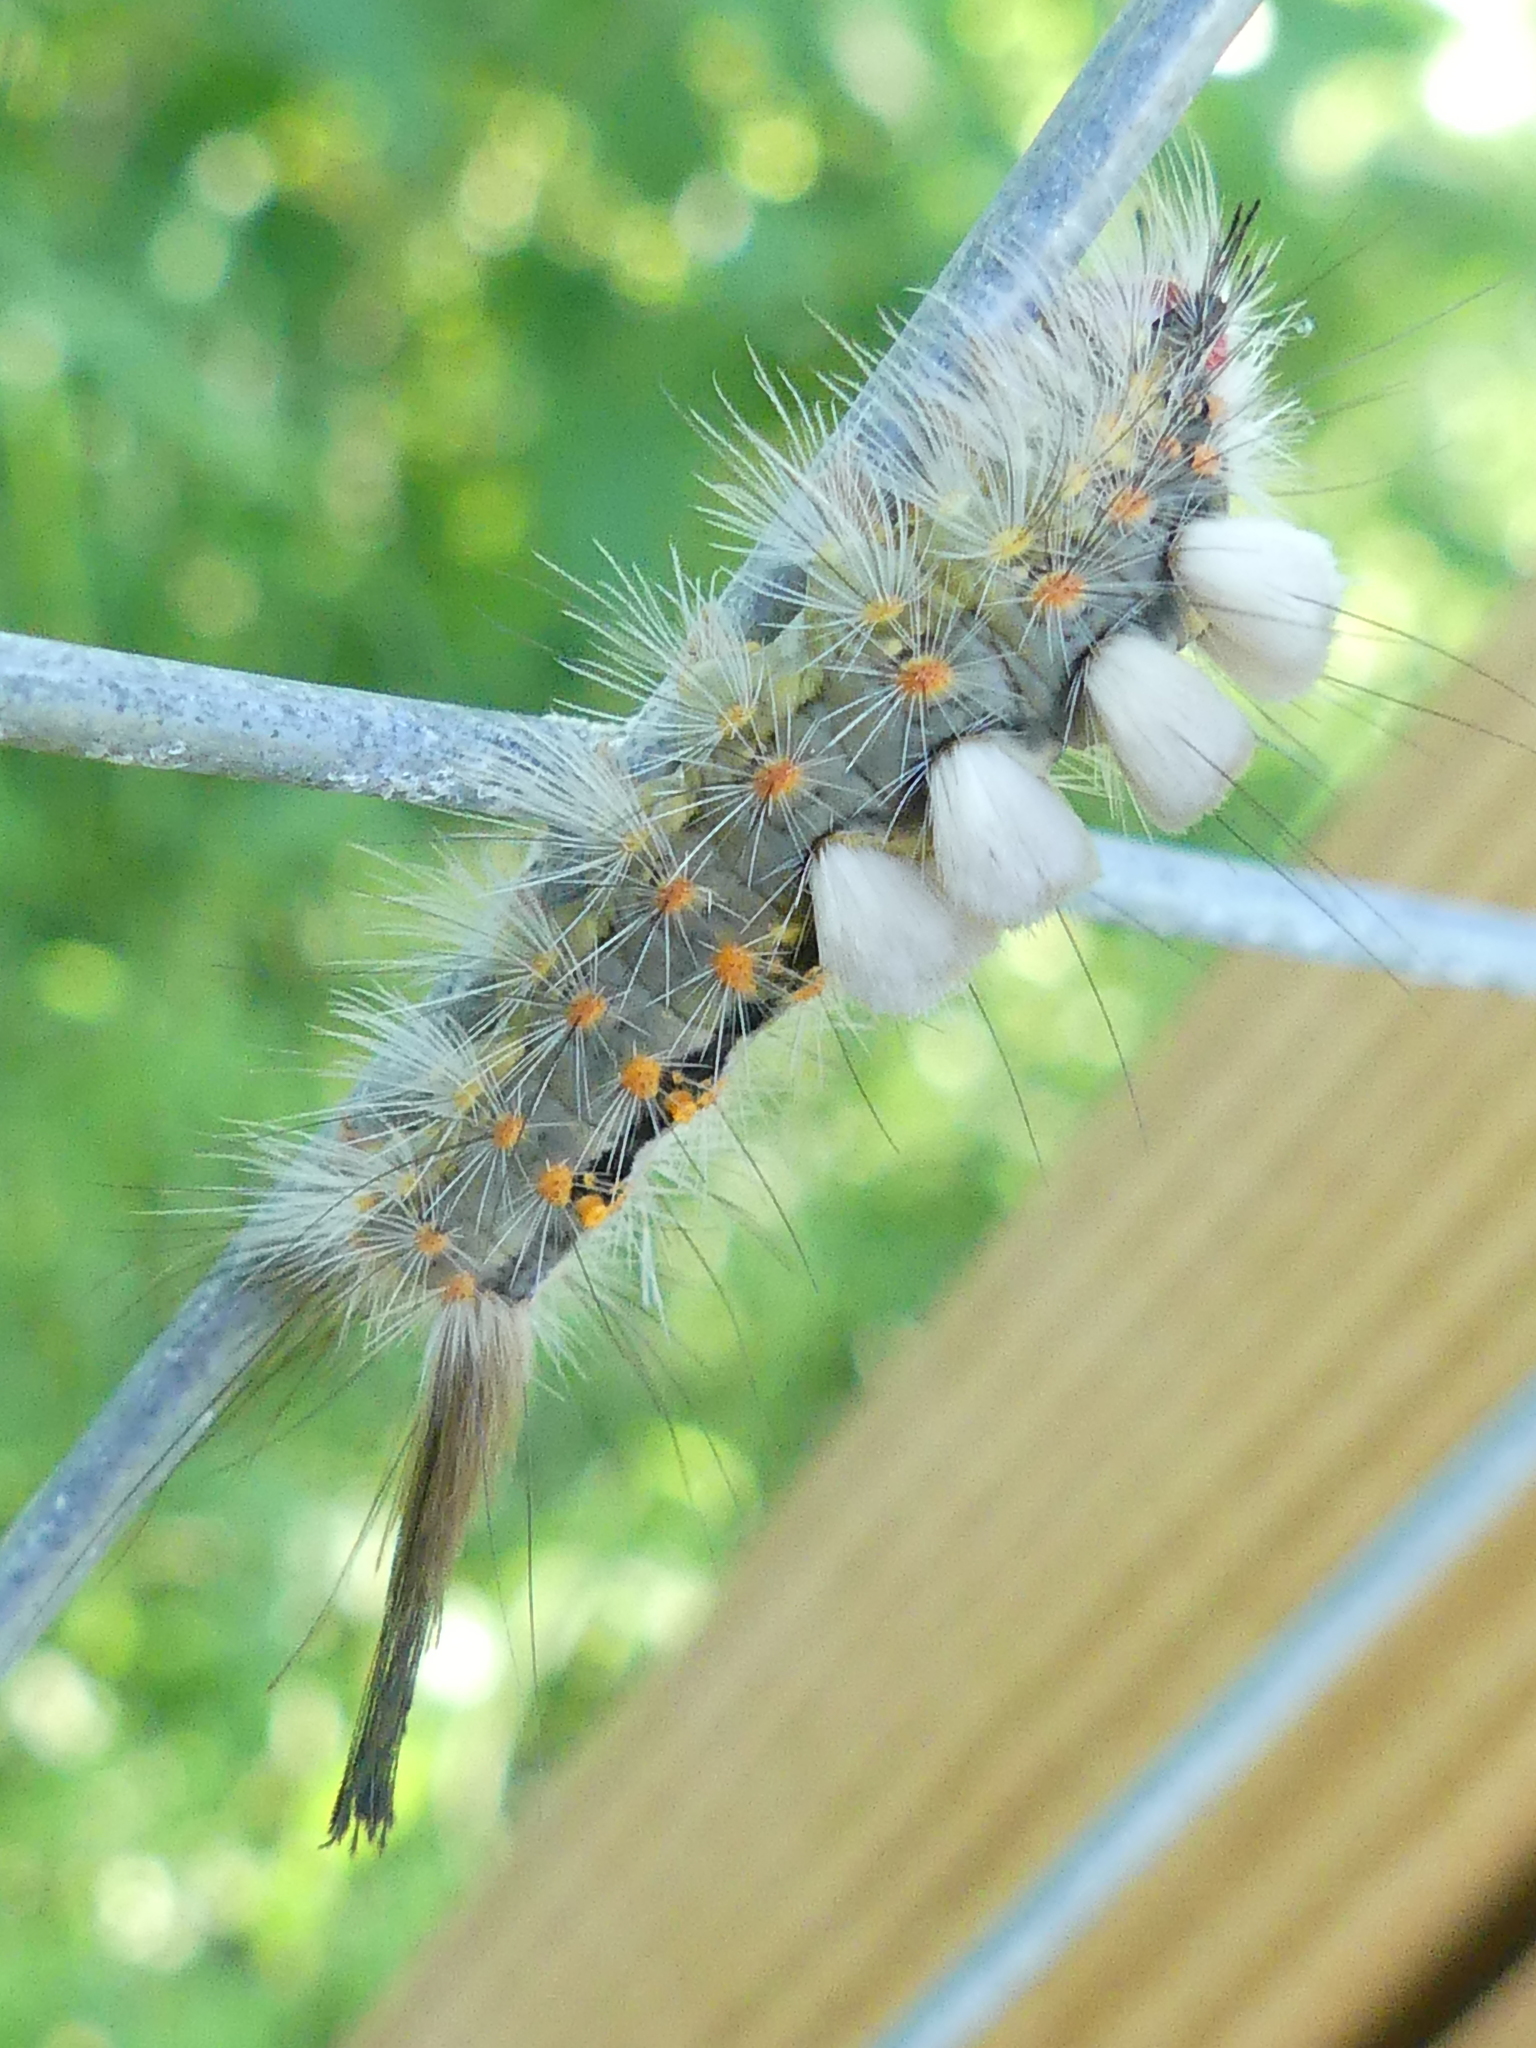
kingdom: Animalia
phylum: Arthropoda
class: Insecta
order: Lepidoptera
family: Erebidae
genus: Orgyia
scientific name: Orgyia detrita
